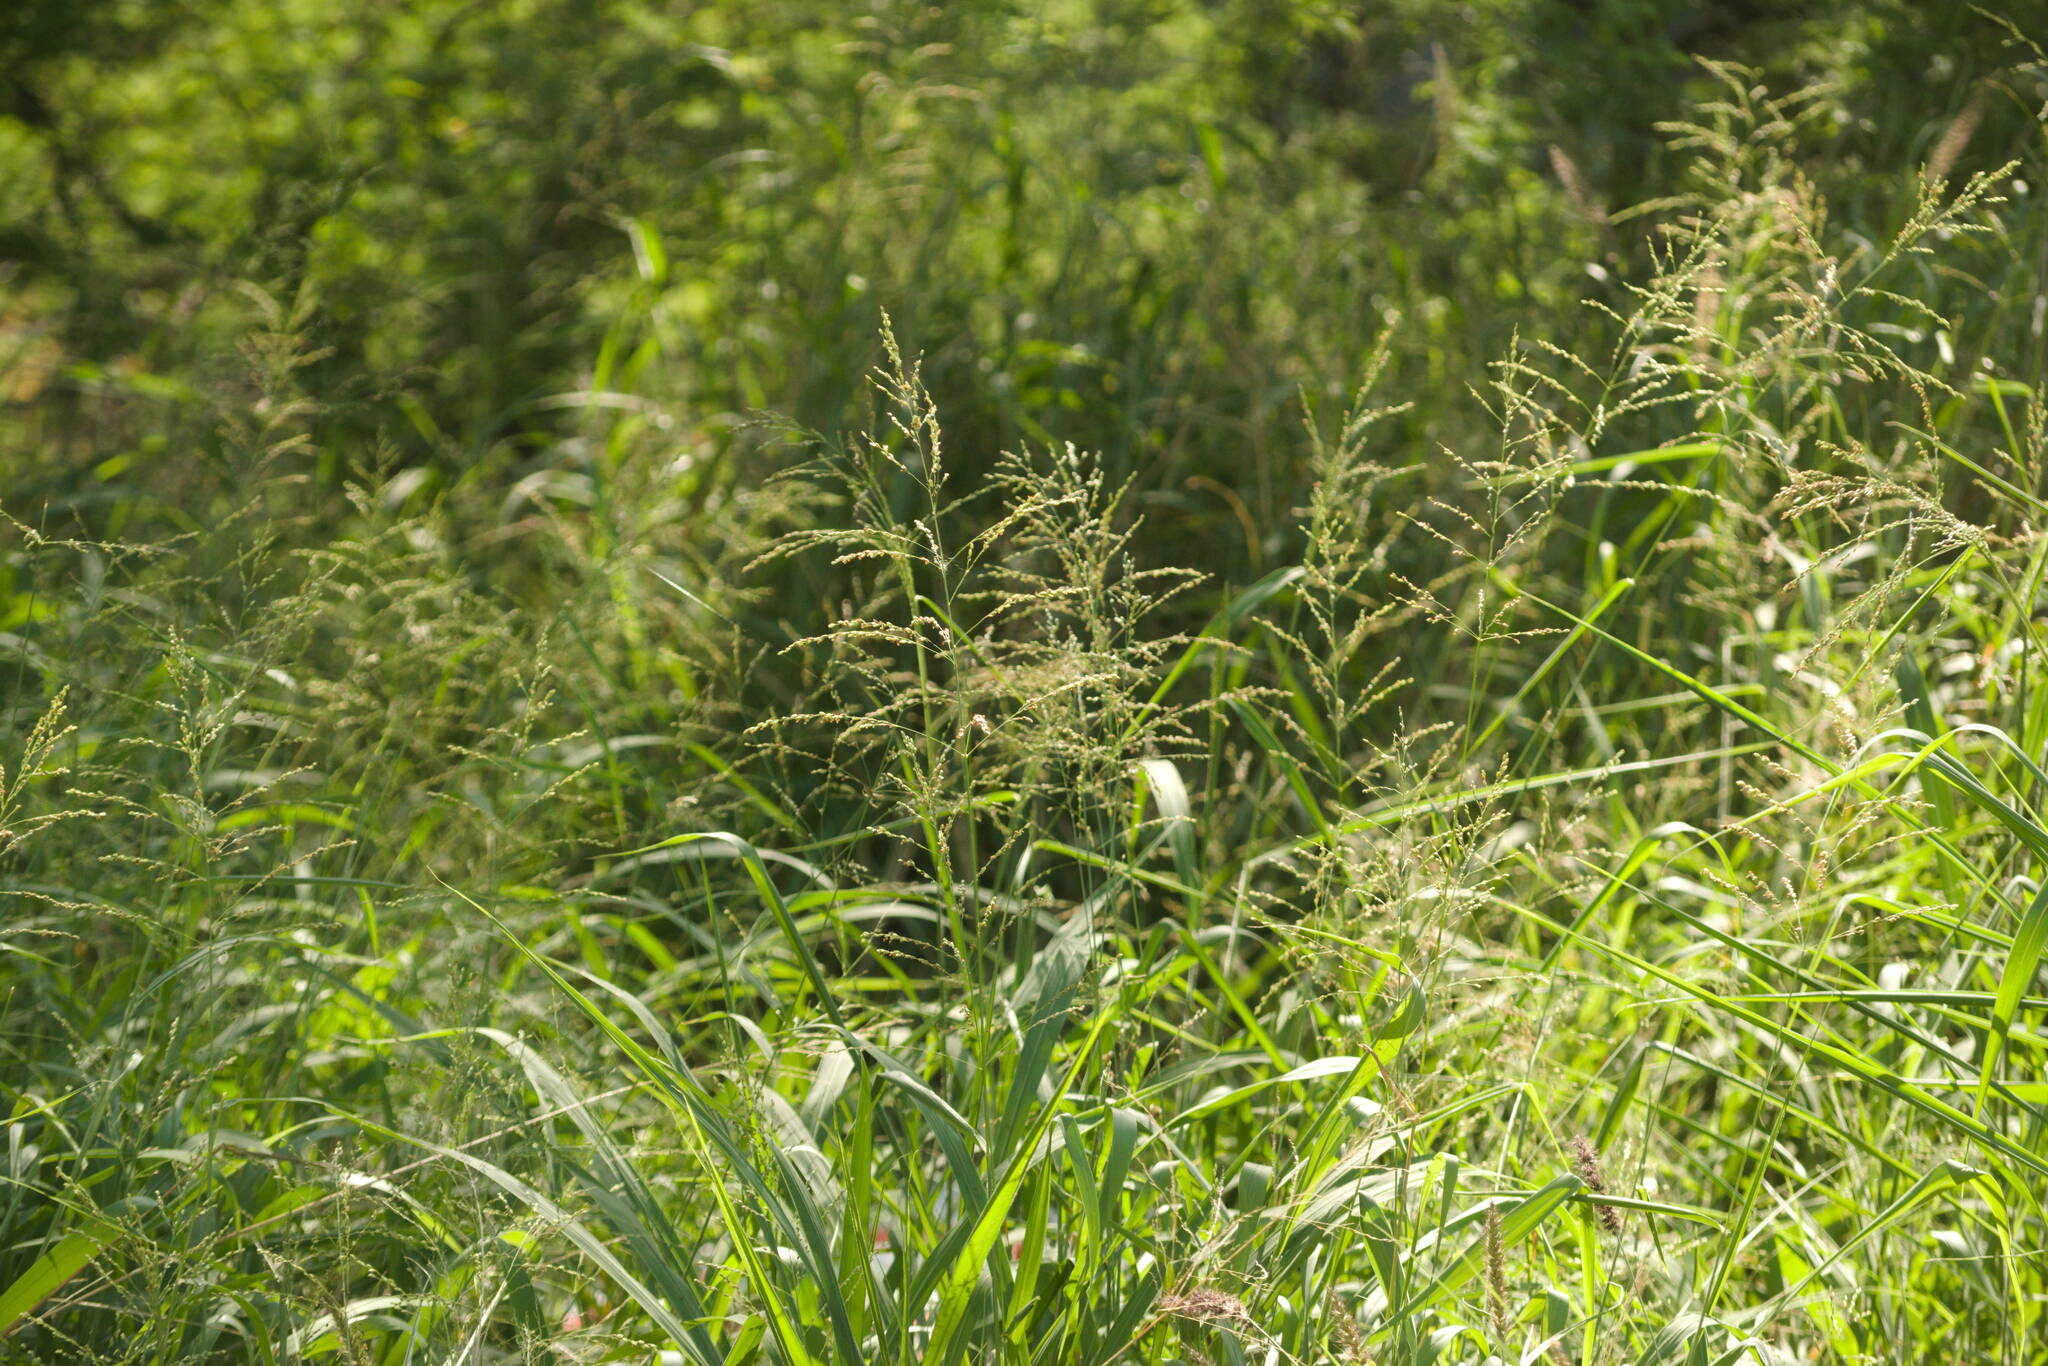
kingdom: Plantae
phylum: Tracheophyta
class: Liliopsida
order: Poales
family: Poaceae
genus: Megathyrsus
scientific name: Megathyrsus maximus
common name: Guineagrass
